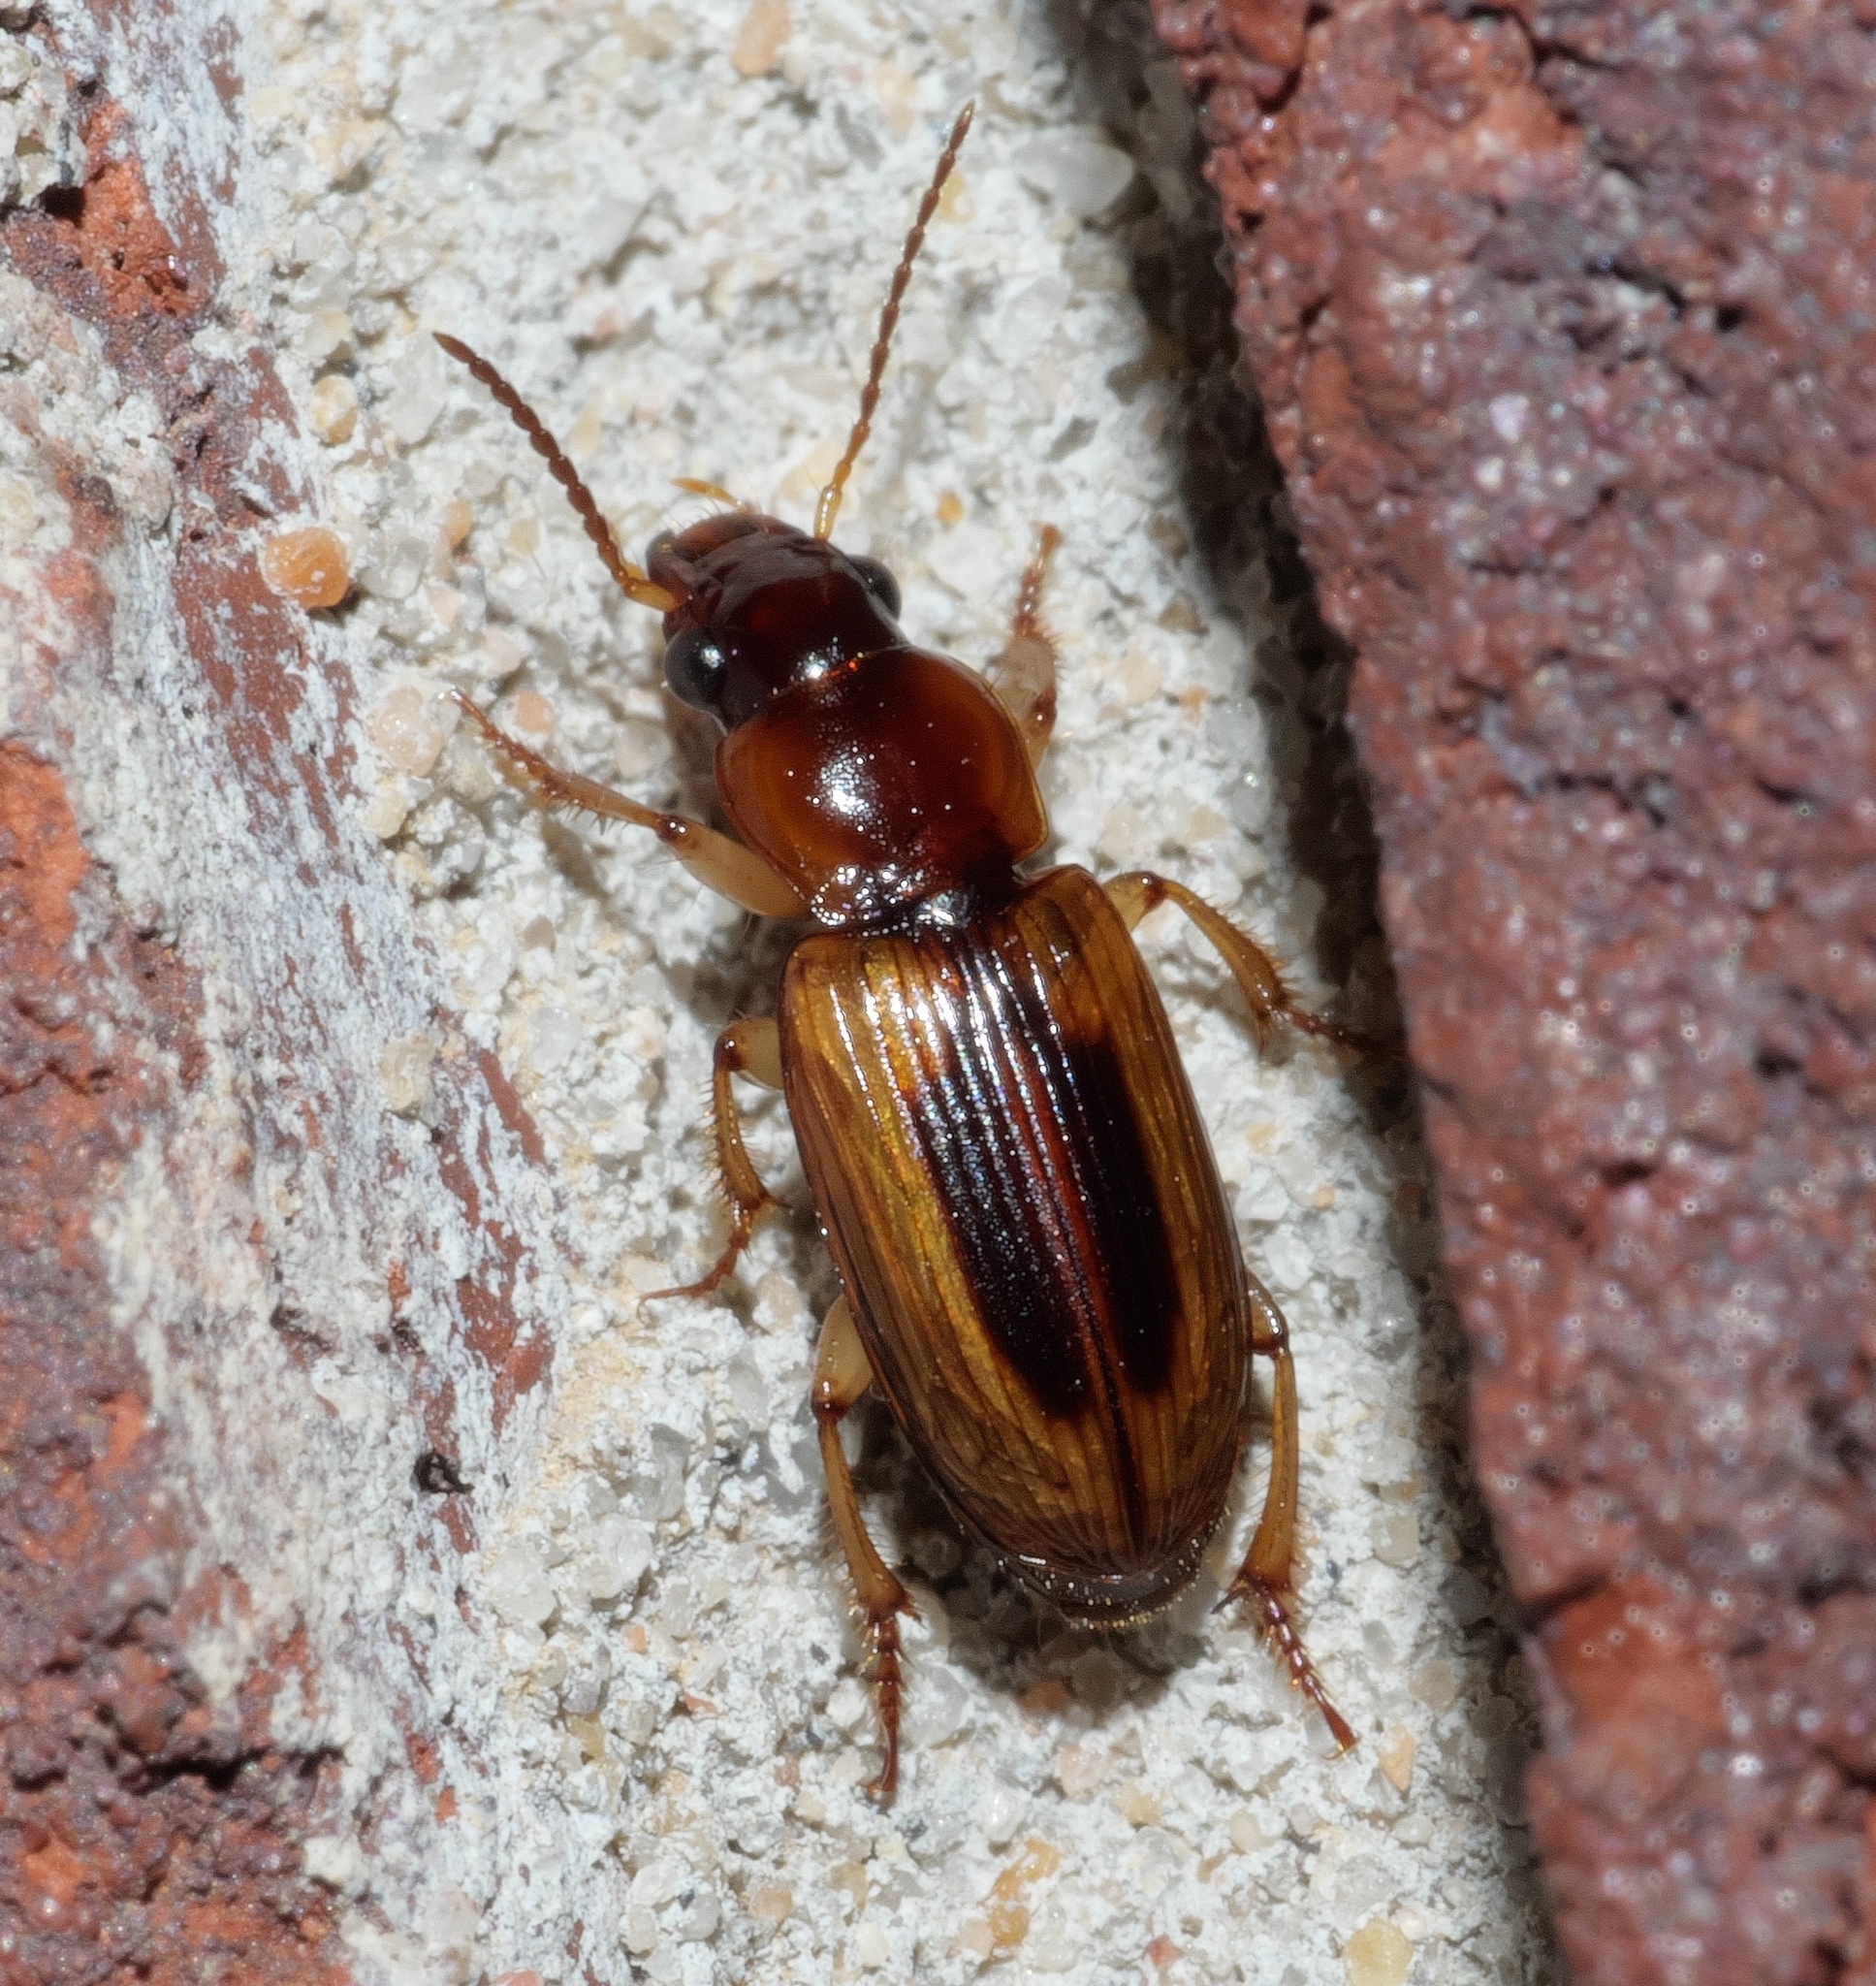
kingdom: Animalia
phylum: Arthropoda
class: Insecta
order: Coleoptera
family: Carabidae
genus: Stenolophus
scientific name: Stenolophus lecontei
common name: Leconte's seedcorn beetle
